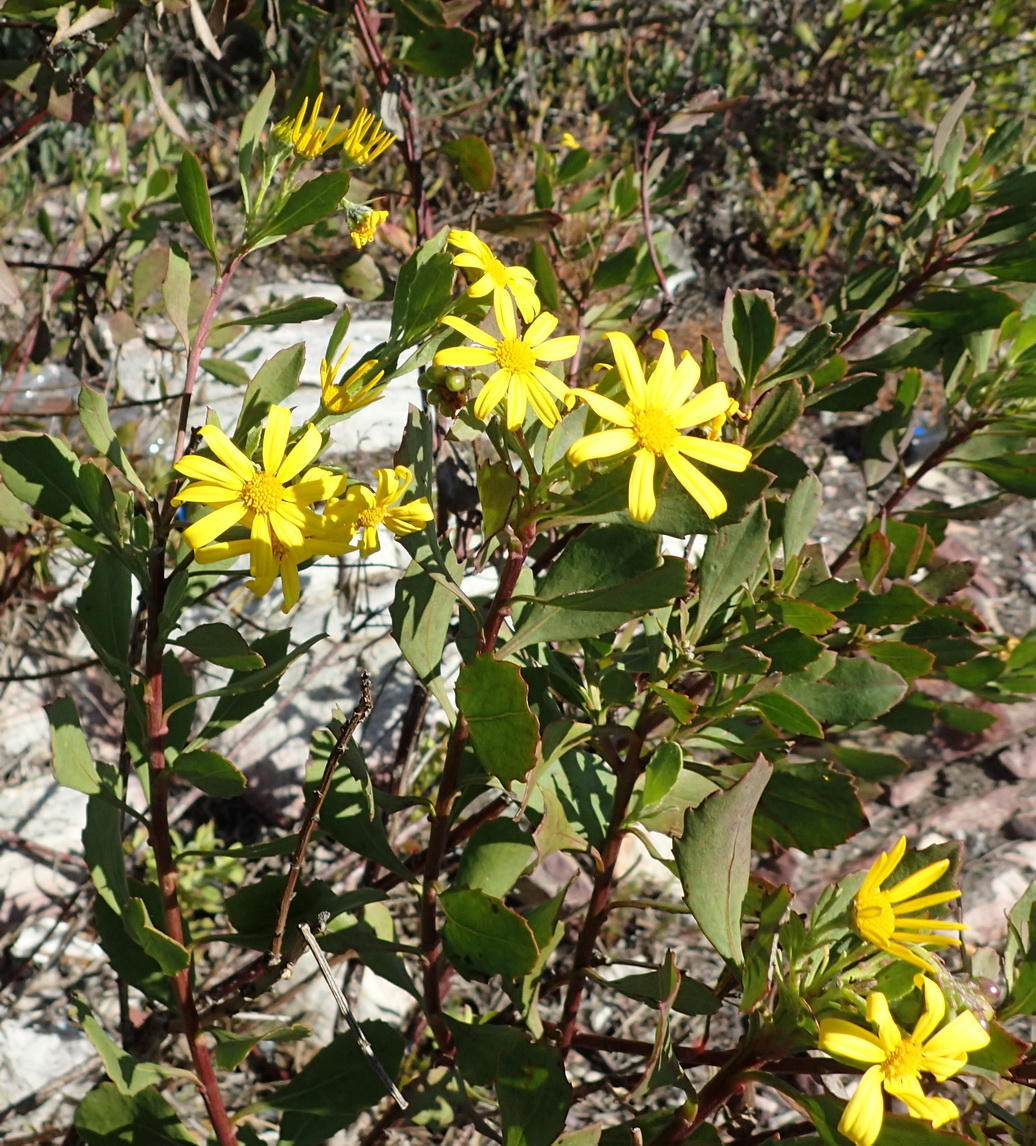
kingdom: Plantae
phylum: Tracheophyta
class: Magnoliopsida
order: Asterales
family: Asteraceae
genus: Osteospermum
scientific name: Osteospermum moniliferum
